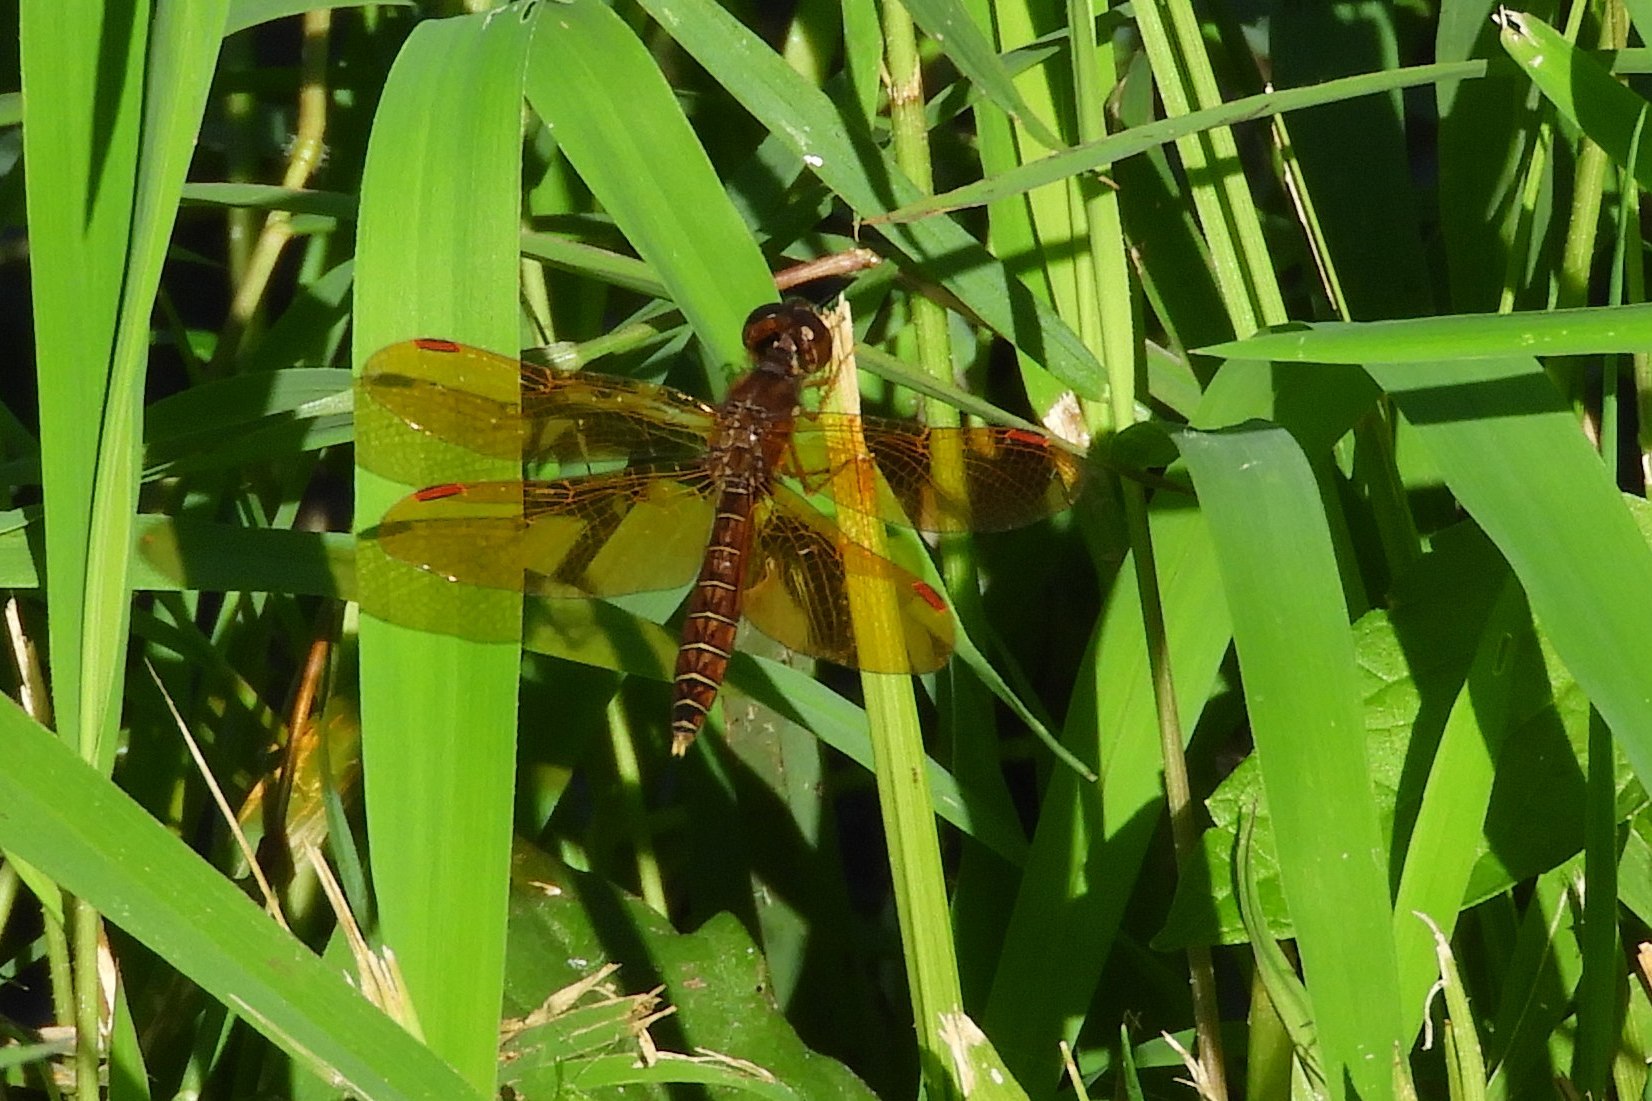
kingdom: Animalia
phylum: Arthropoda
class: Insecta
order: Odonata
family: Libellulidae
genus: Perithemis
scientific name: Perithemis tenera
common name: Eastern amberwing
